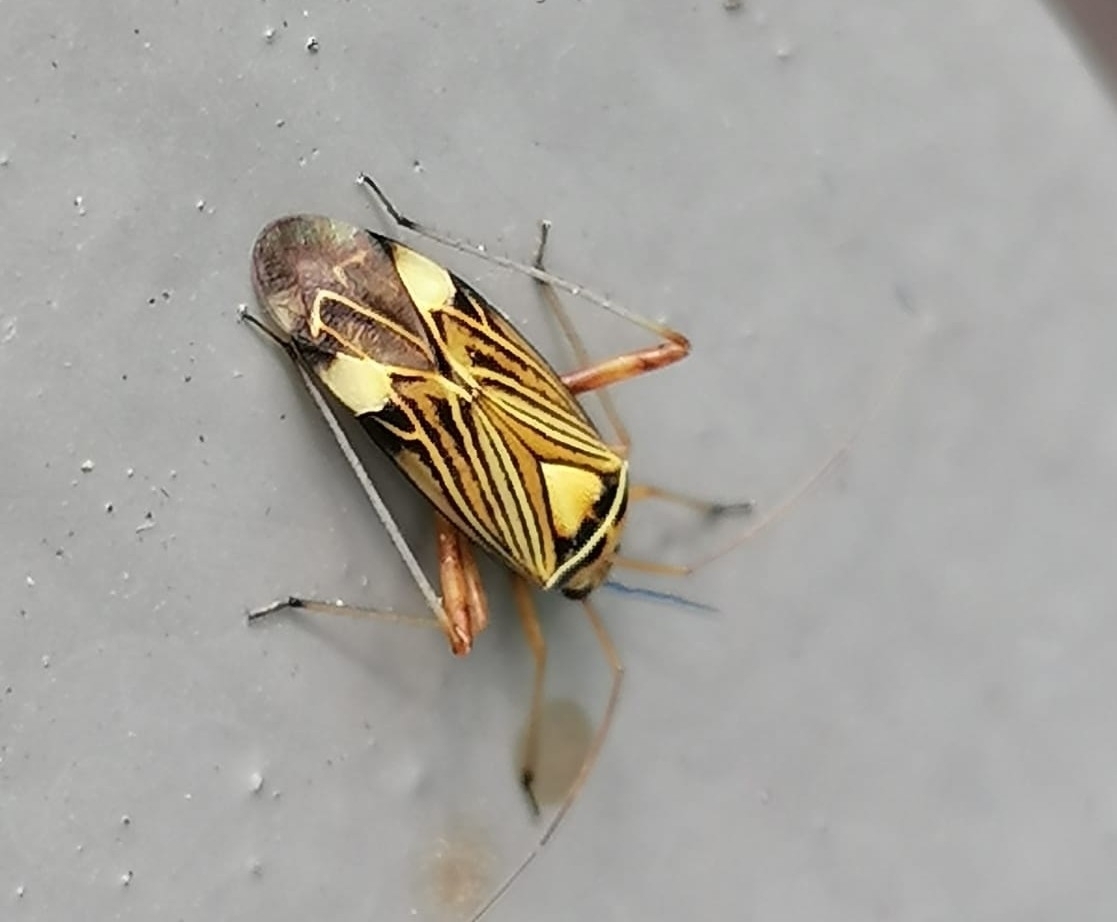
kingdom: Animalia
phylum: Arthropoda
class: Insecta
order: Hemiptera
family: Miridae
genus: Rhabdomiris
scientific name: Rhabdomiris striatellus
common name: Plant bug
